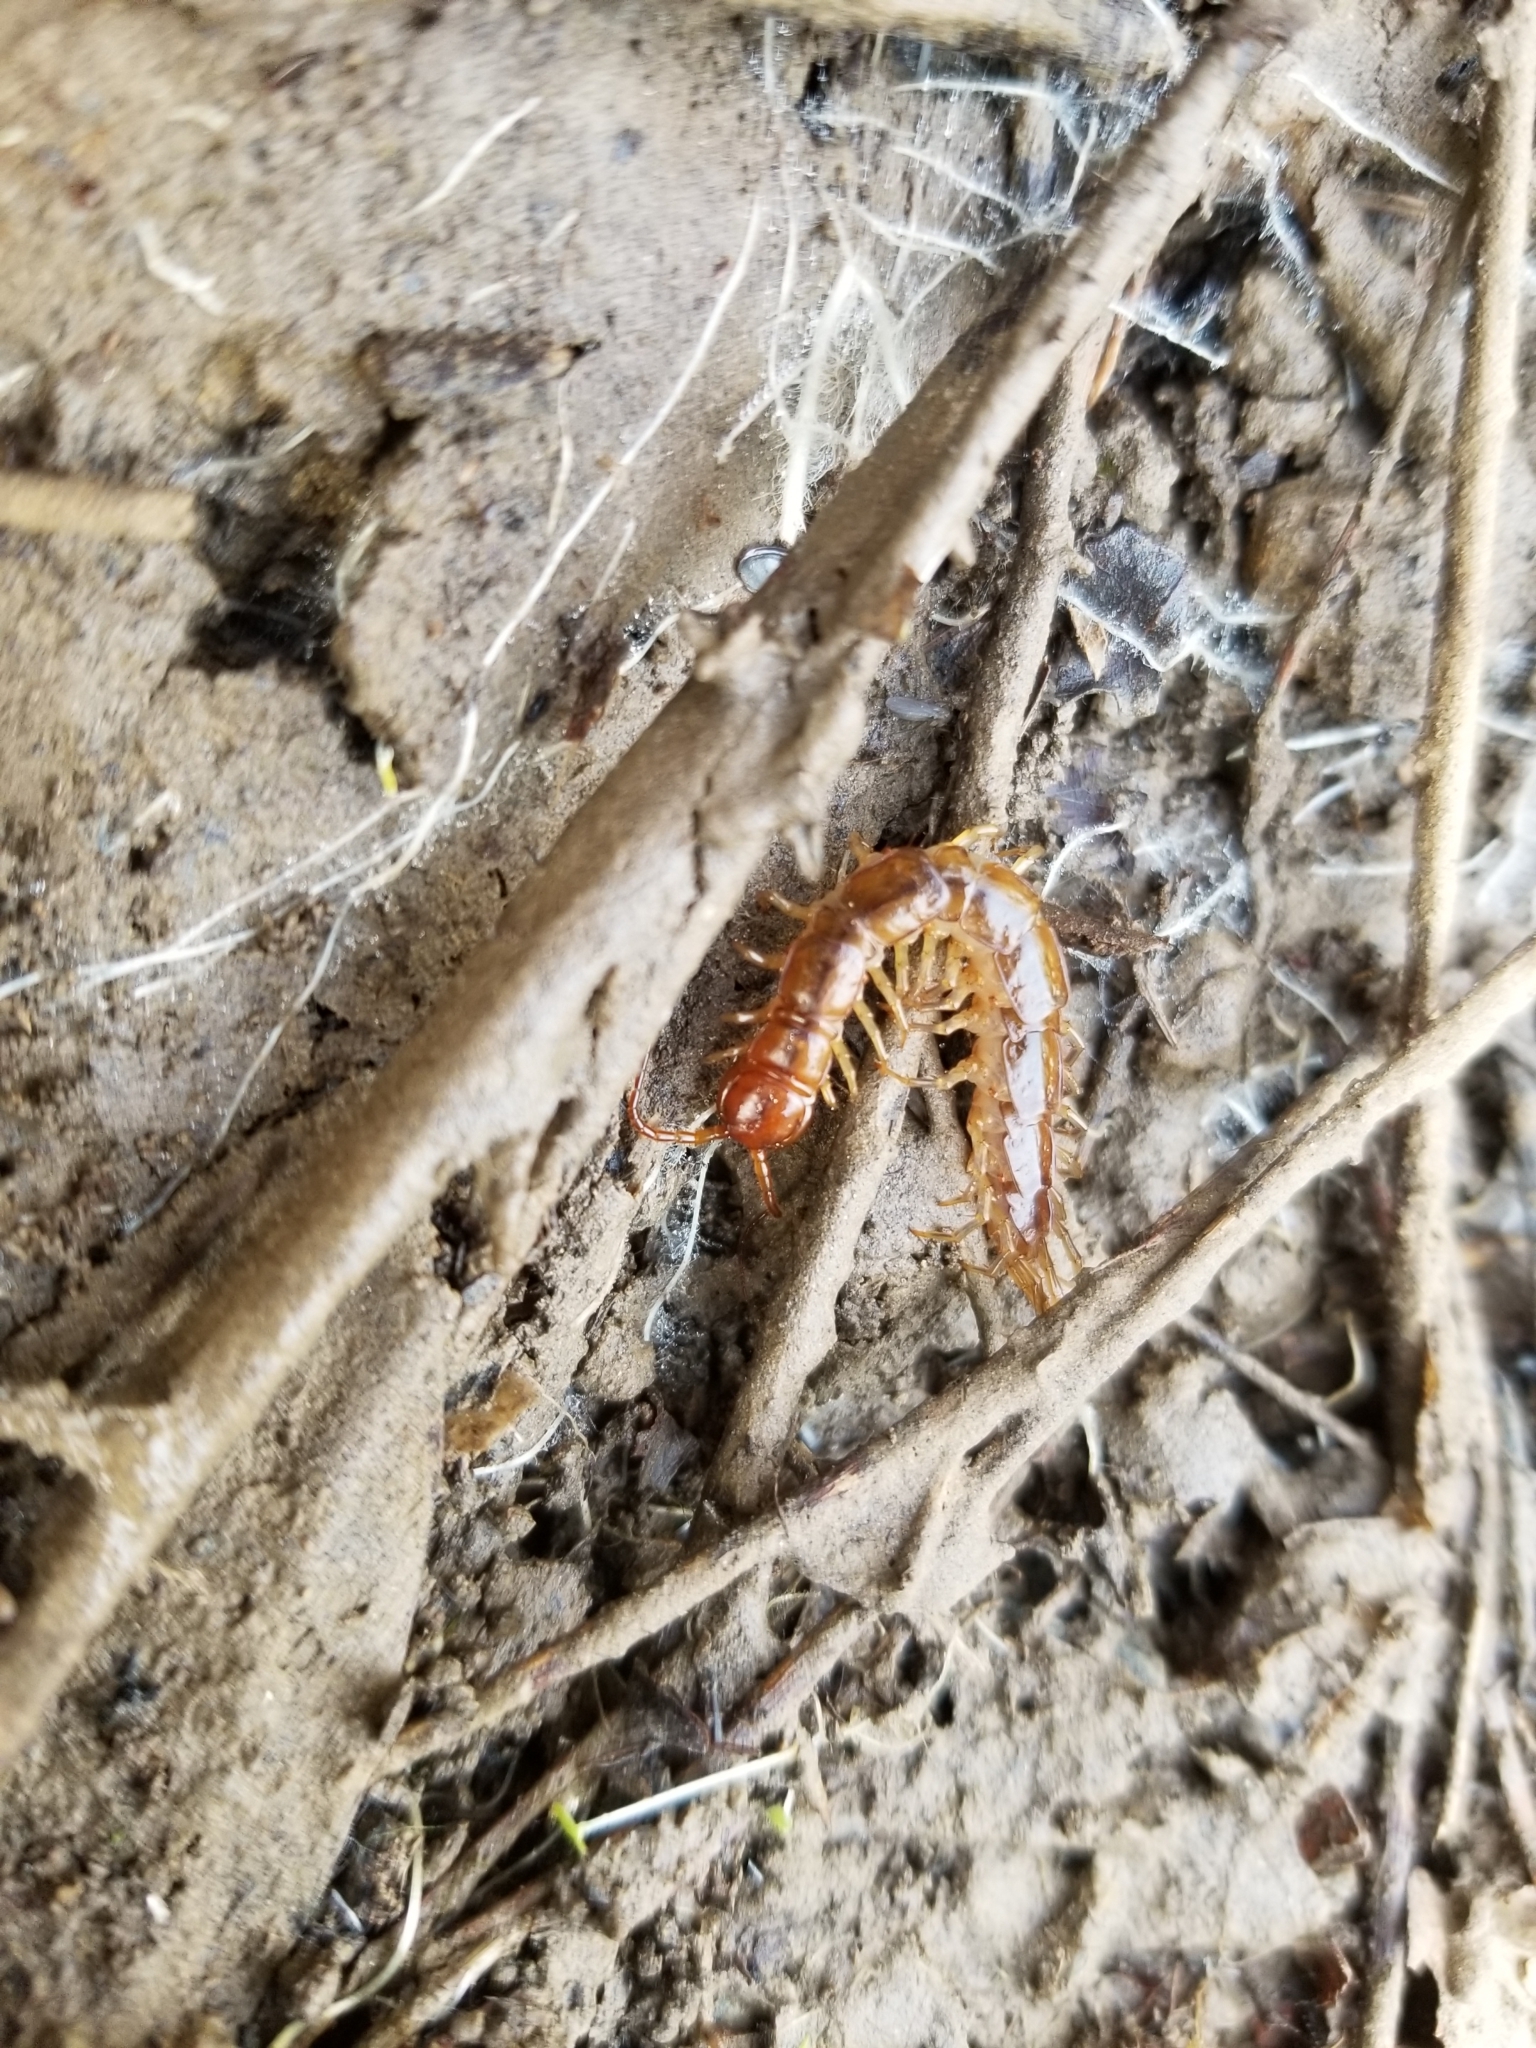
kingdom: Animalia
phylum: Arthropoda
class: Chilopoda
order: Lithobiomorpha
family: Lithobiidae
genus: Pseudolithobius
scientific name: Pseudolithobius megaloporus
